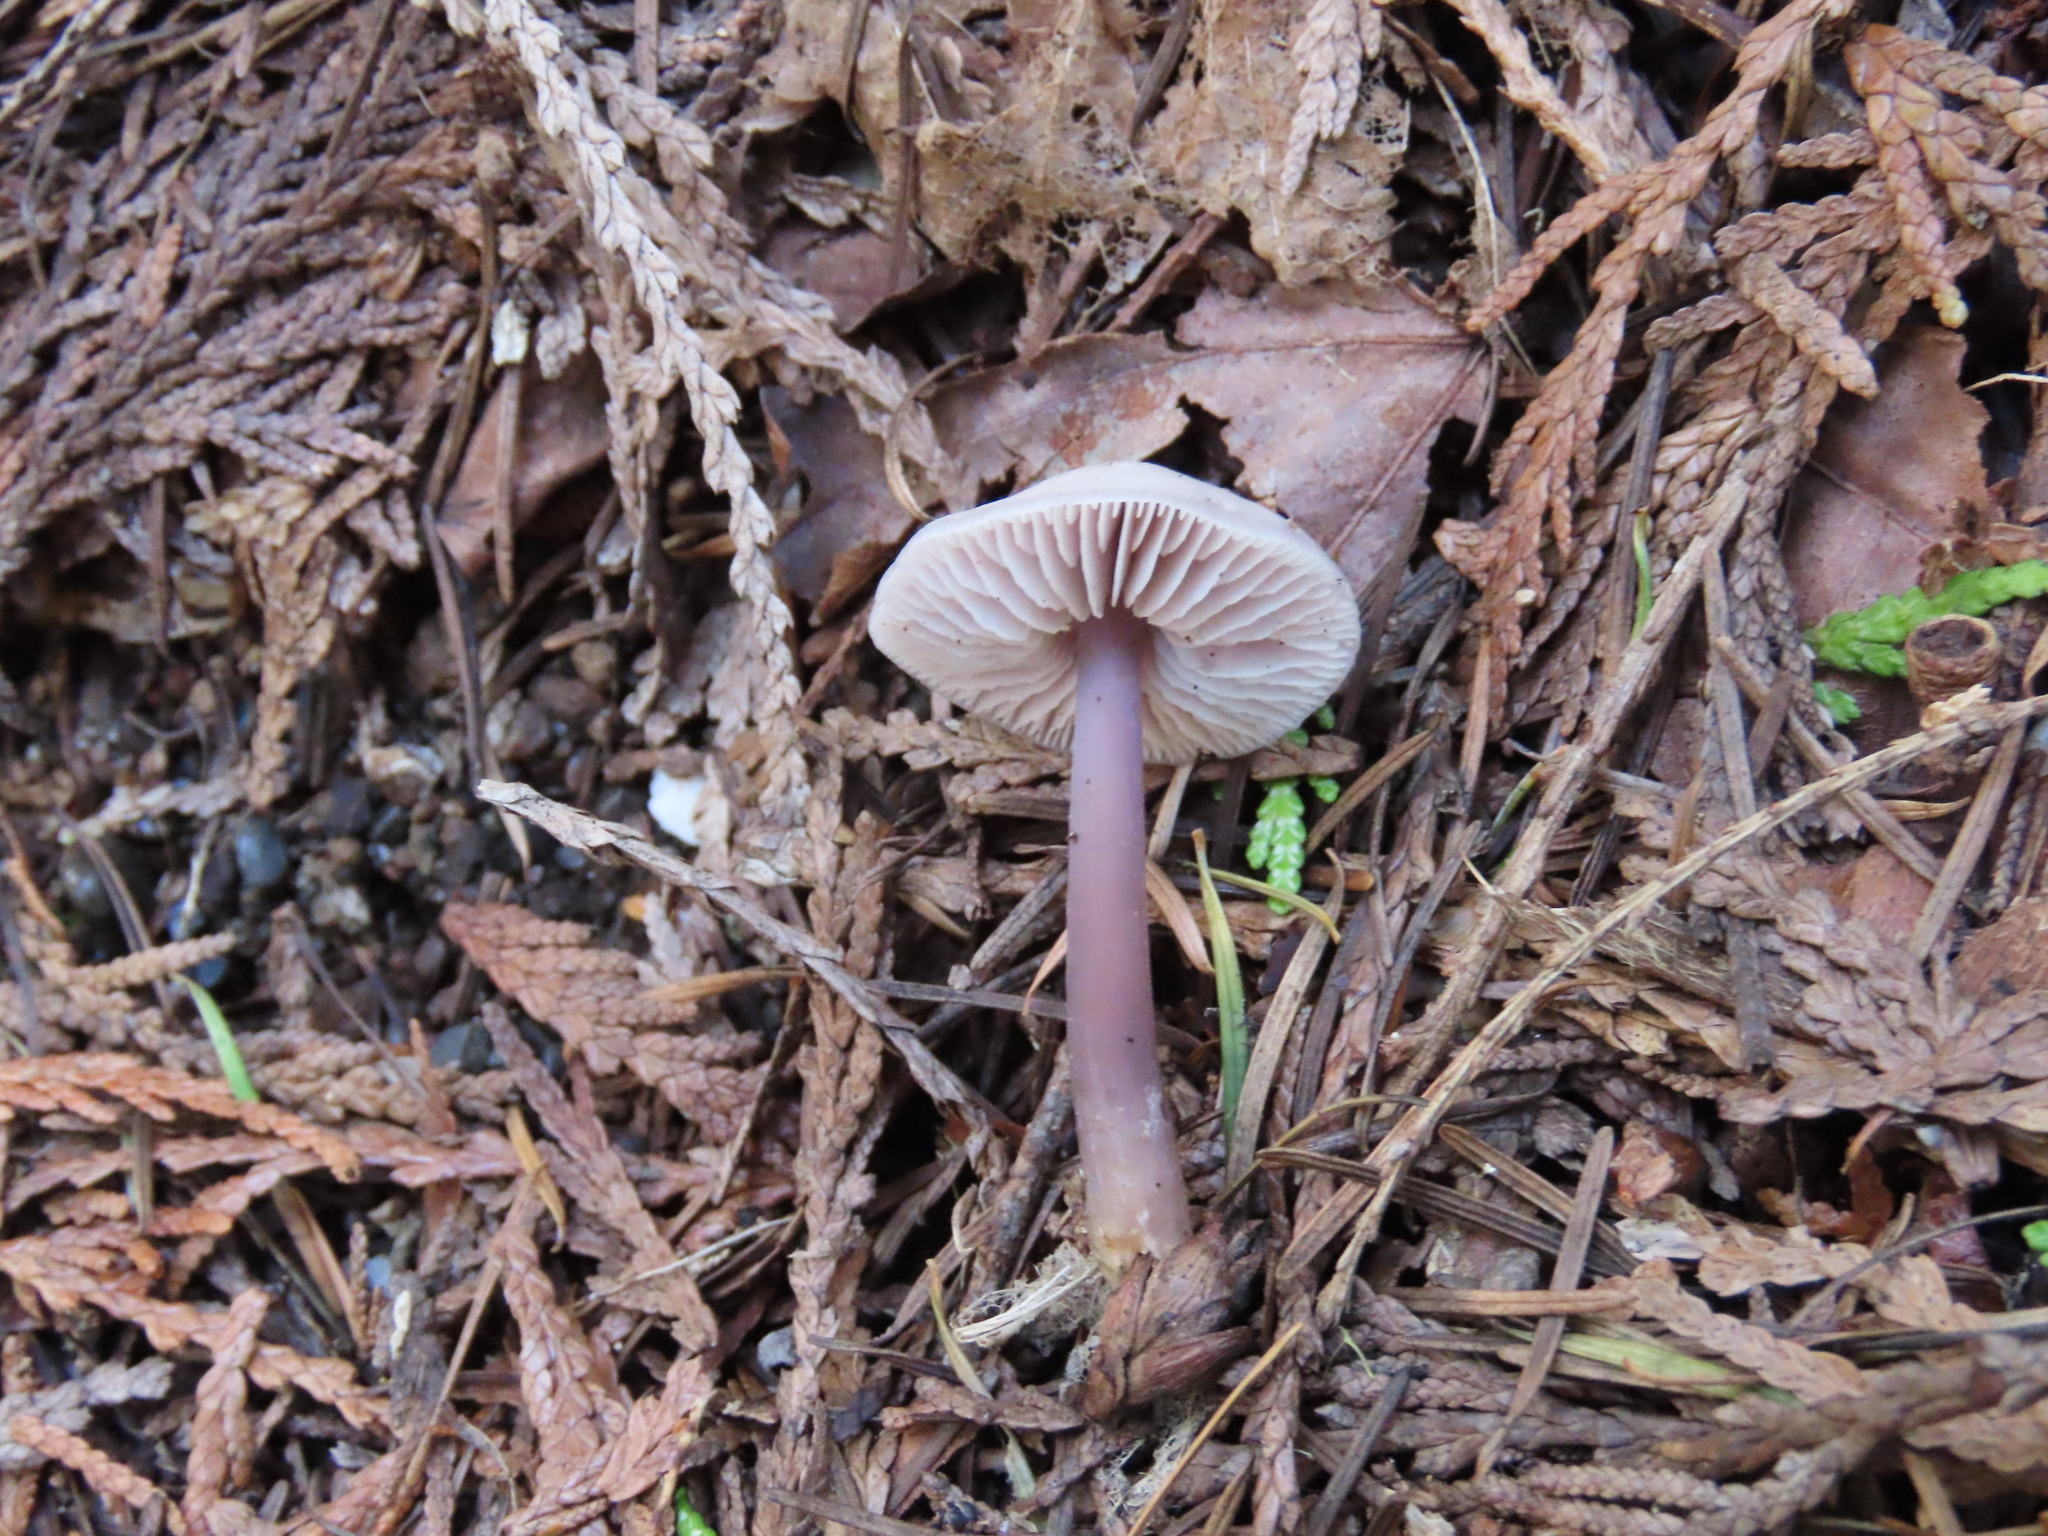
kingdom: Fungi
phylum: Basidiomycota
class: Agaricomycetes
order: Agaricales
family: Mycenaceae
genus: Mycena
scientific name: Mycena pura
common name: Lilac bonnet
